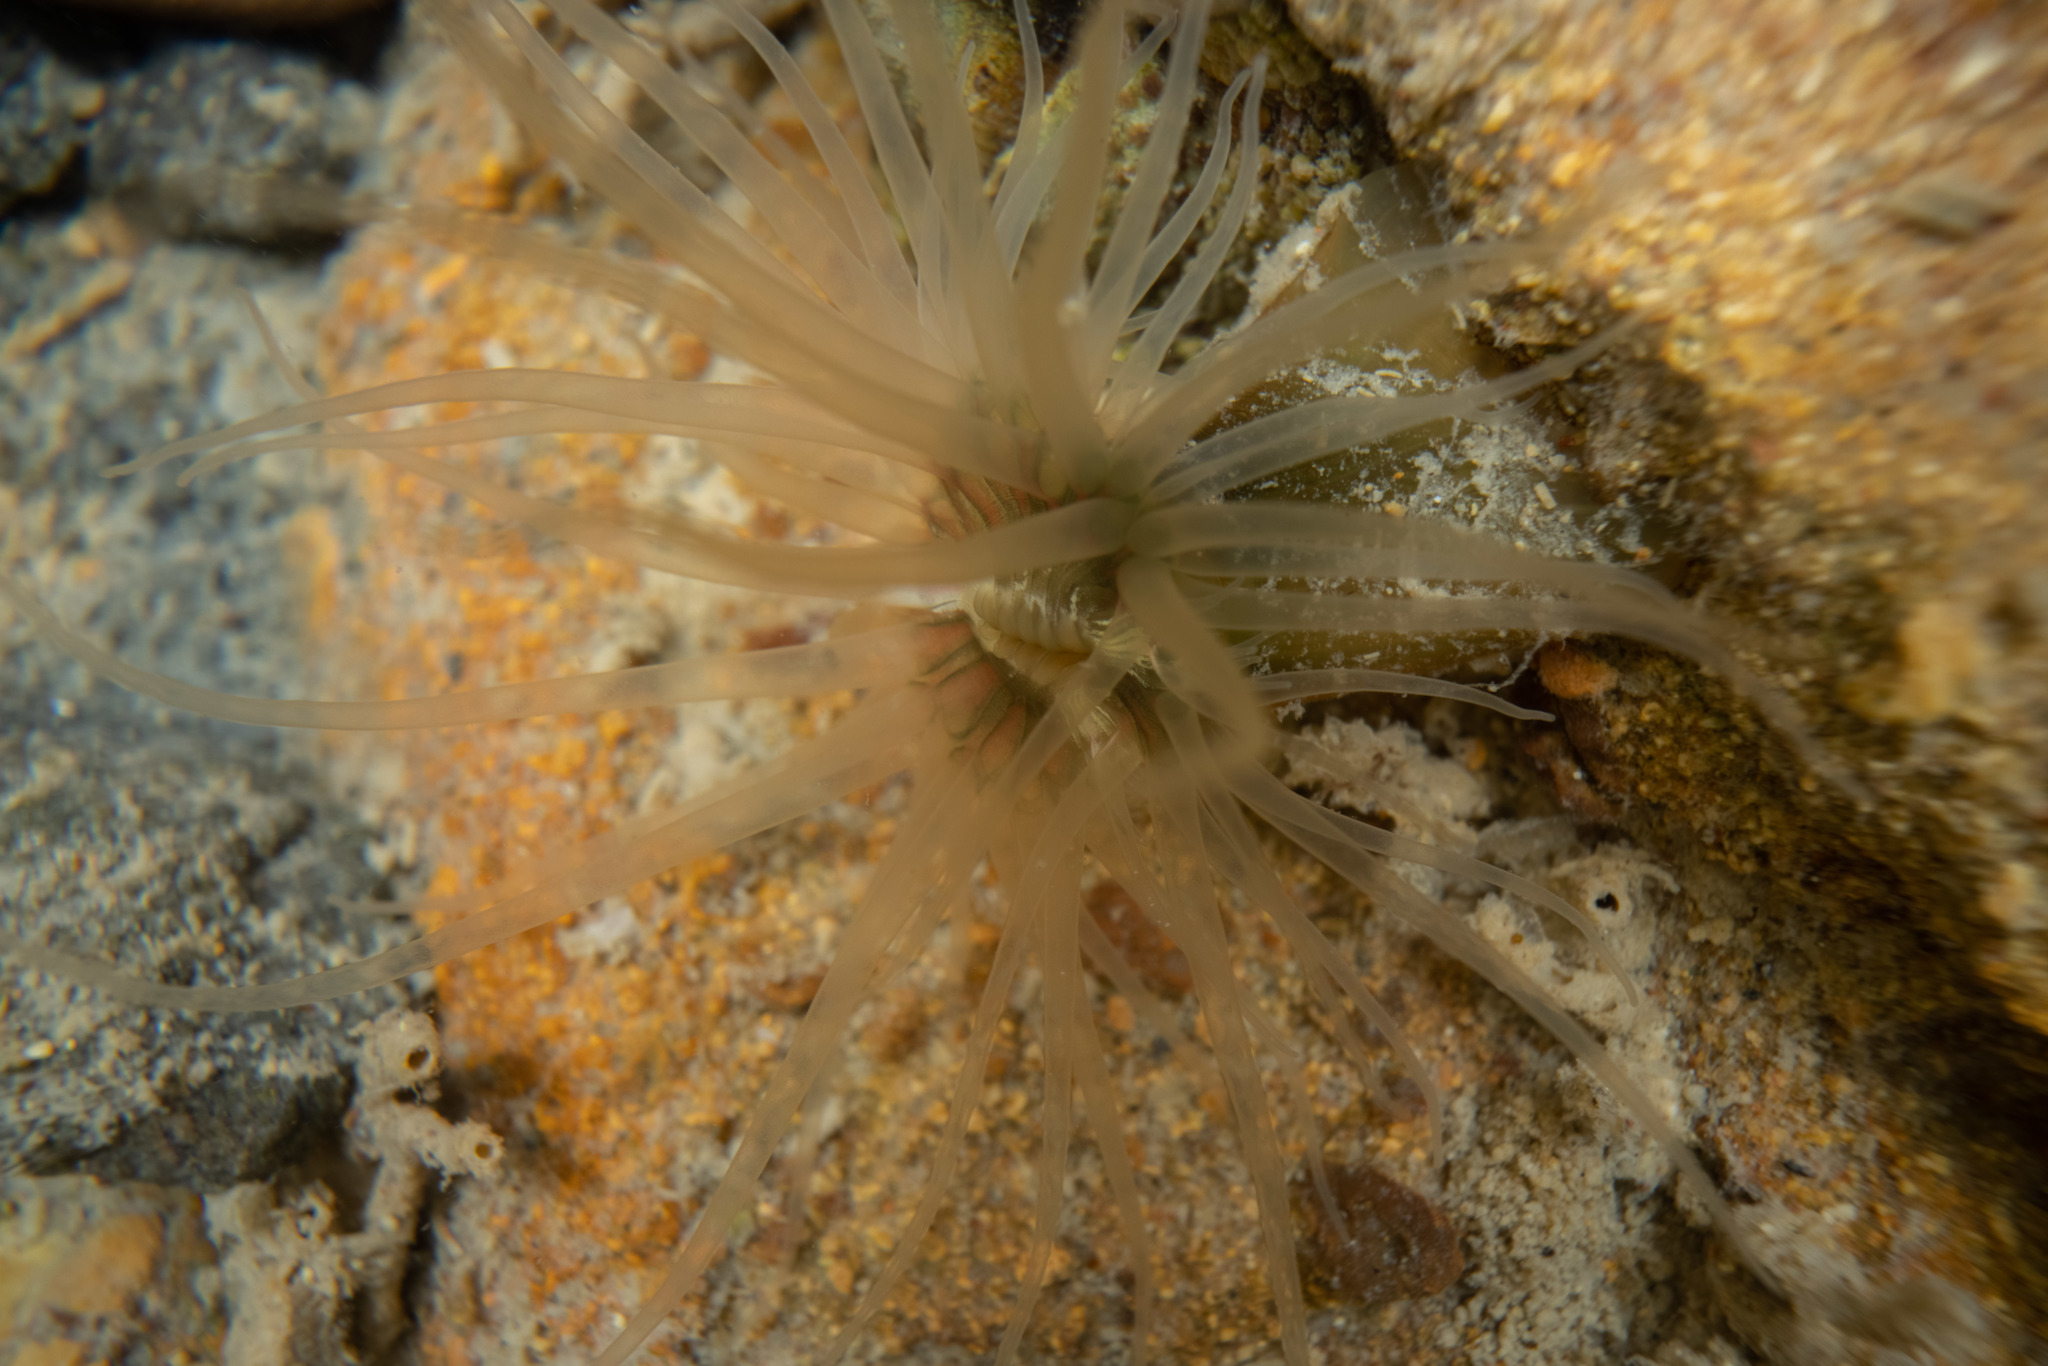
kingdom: Animalia
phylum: Cnidaria
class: Anthozoa
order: Actiniaria
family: Diadumenidae
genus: Diadumene
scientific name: Diadumene lineata
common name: Orange-striped anemone
